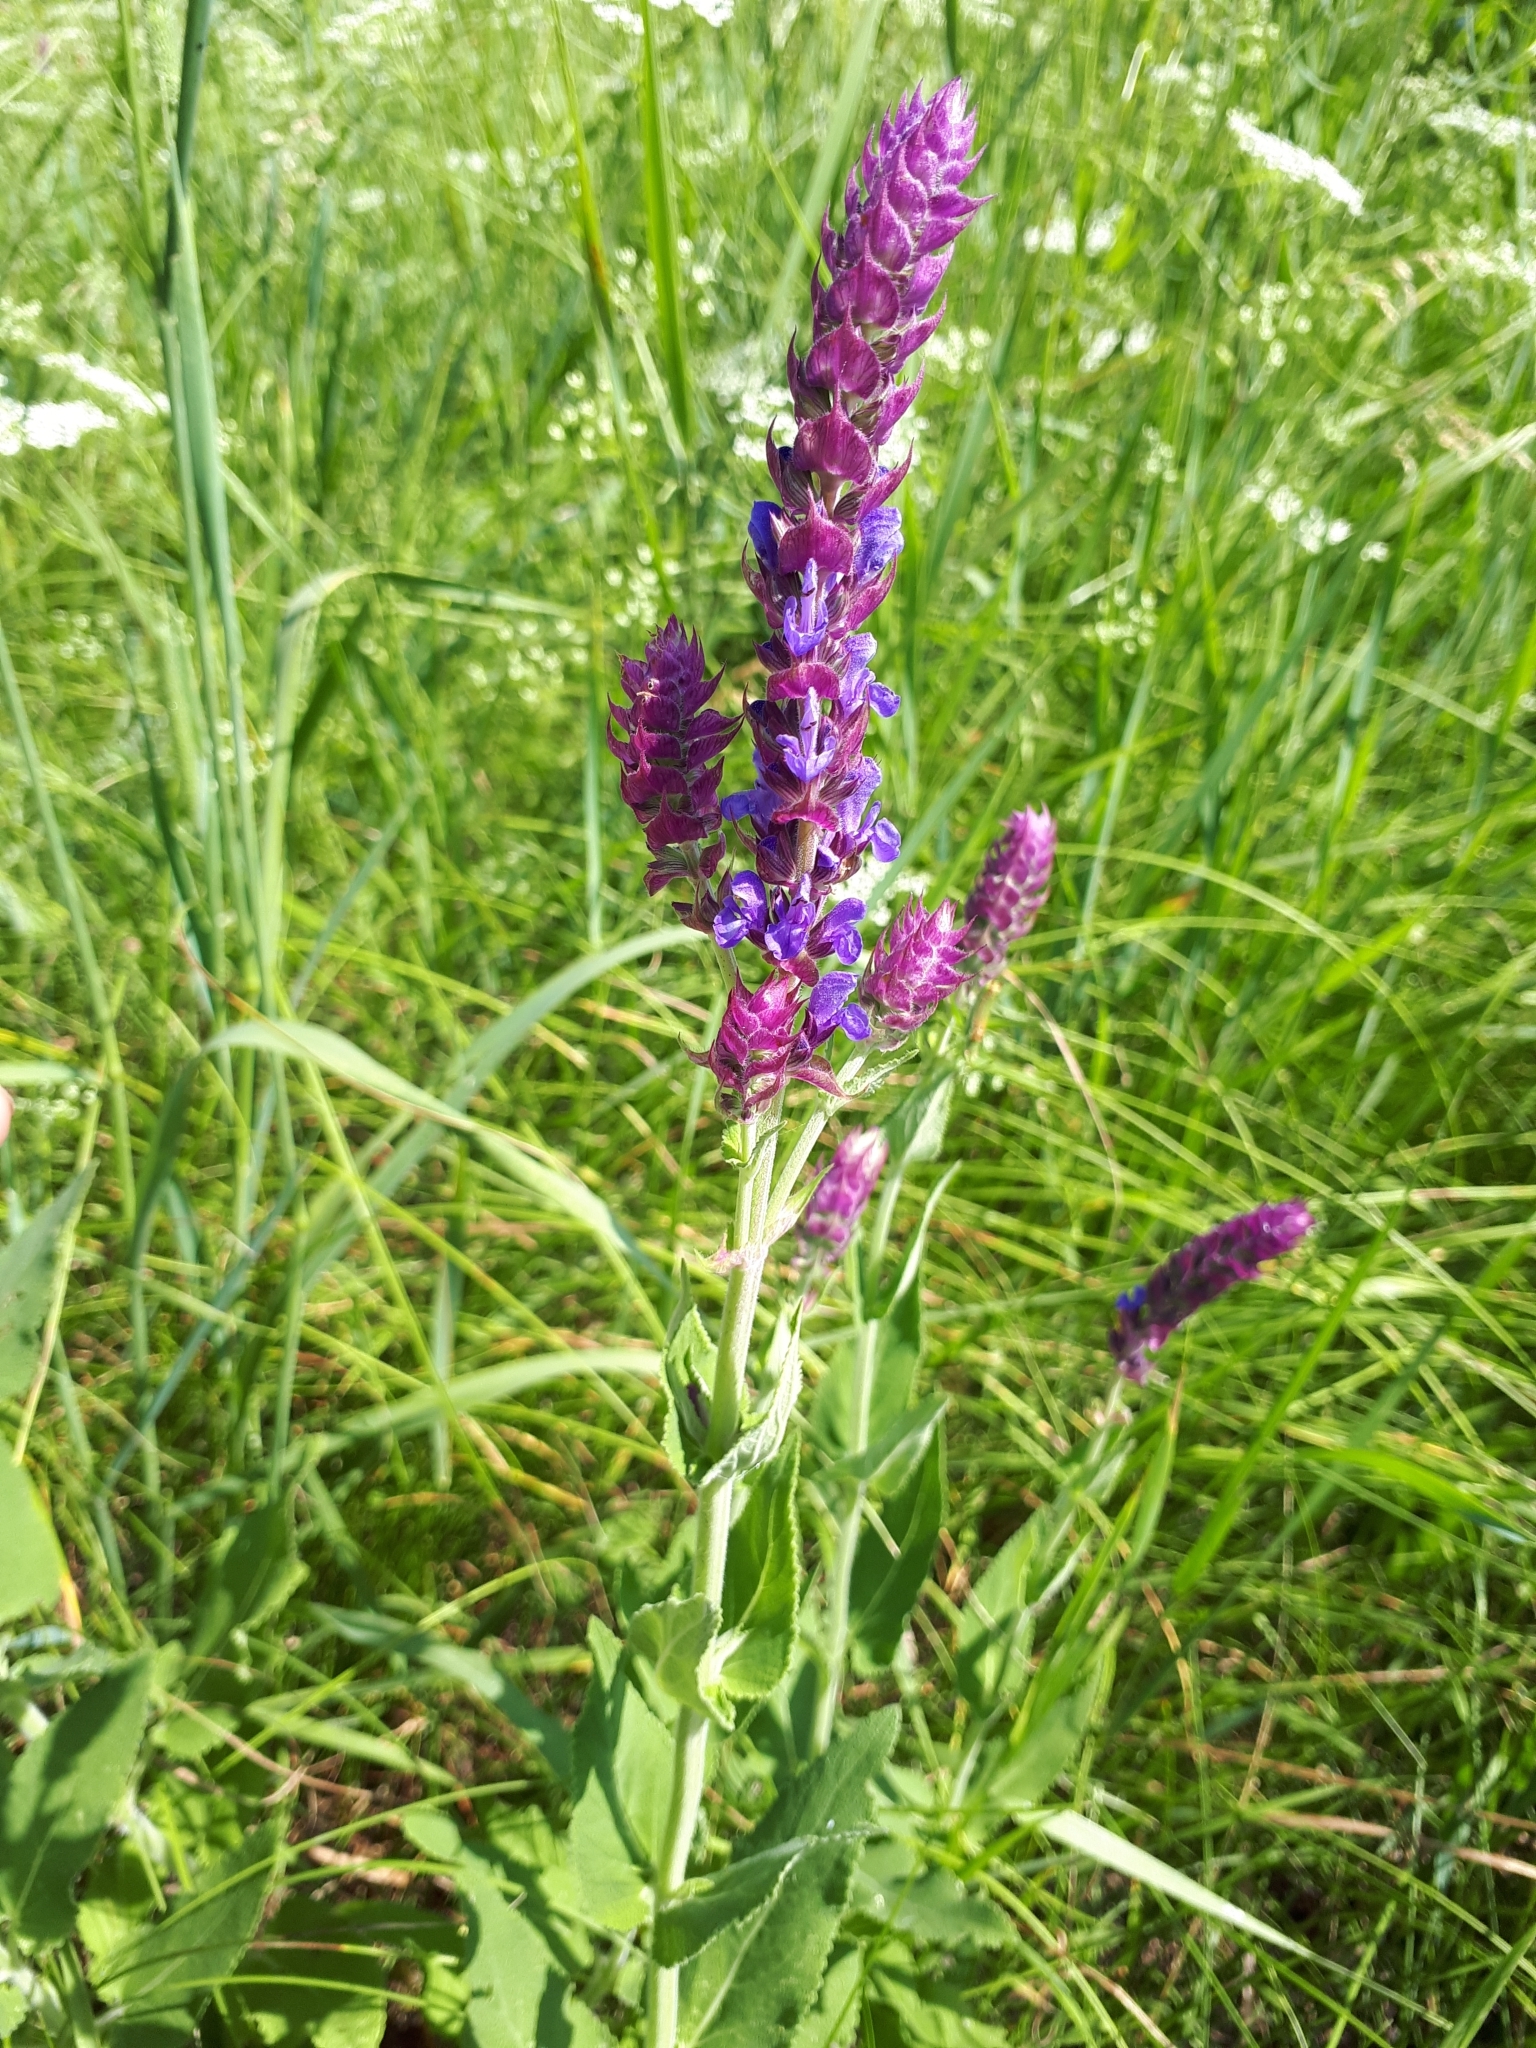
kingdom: Plantae
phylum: Tracheophyta
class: Magnoliopsida
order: Lamiales
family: Lamiaceae
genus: Salvia
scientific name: Salvia nemorosa
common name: Balkan clary
